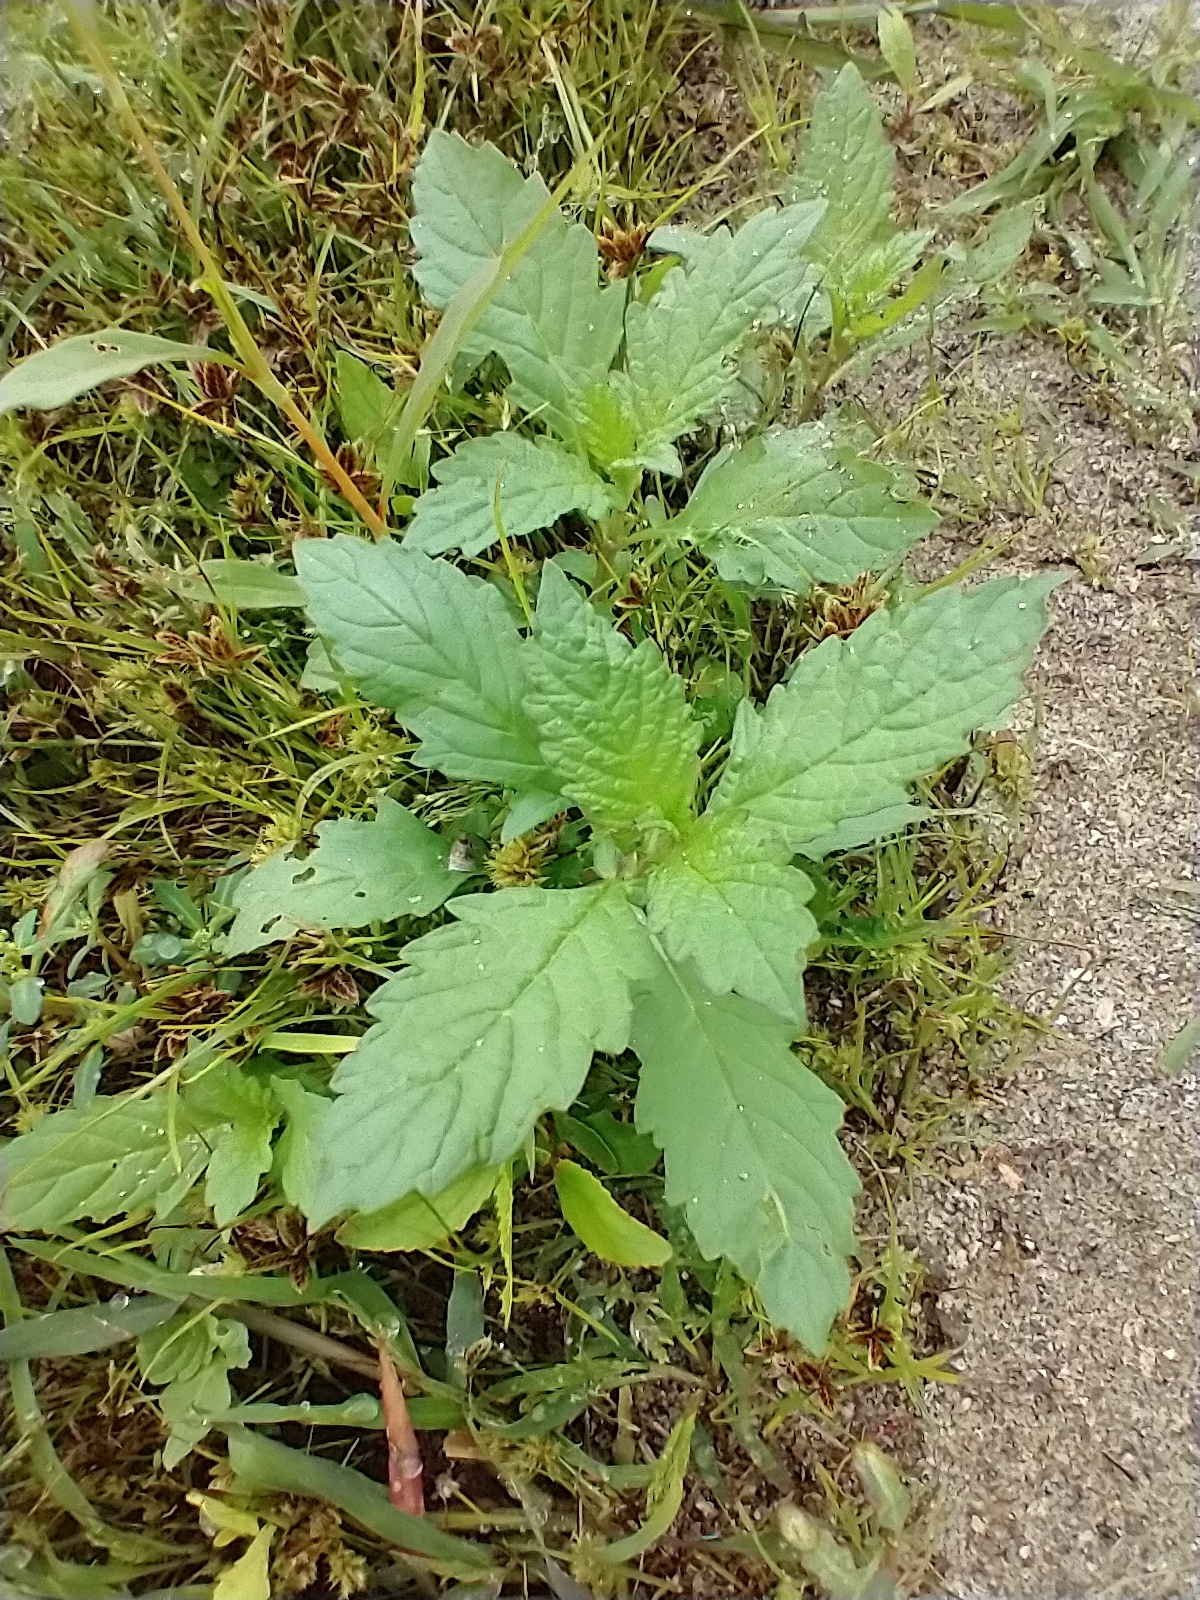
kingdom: Plantae
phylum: Tracheophyta
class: Magnoliopsida
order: Lamiales
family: Lamiaceae
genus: Lycopus
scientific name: Lycopus europaeus
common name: European bugleweed
